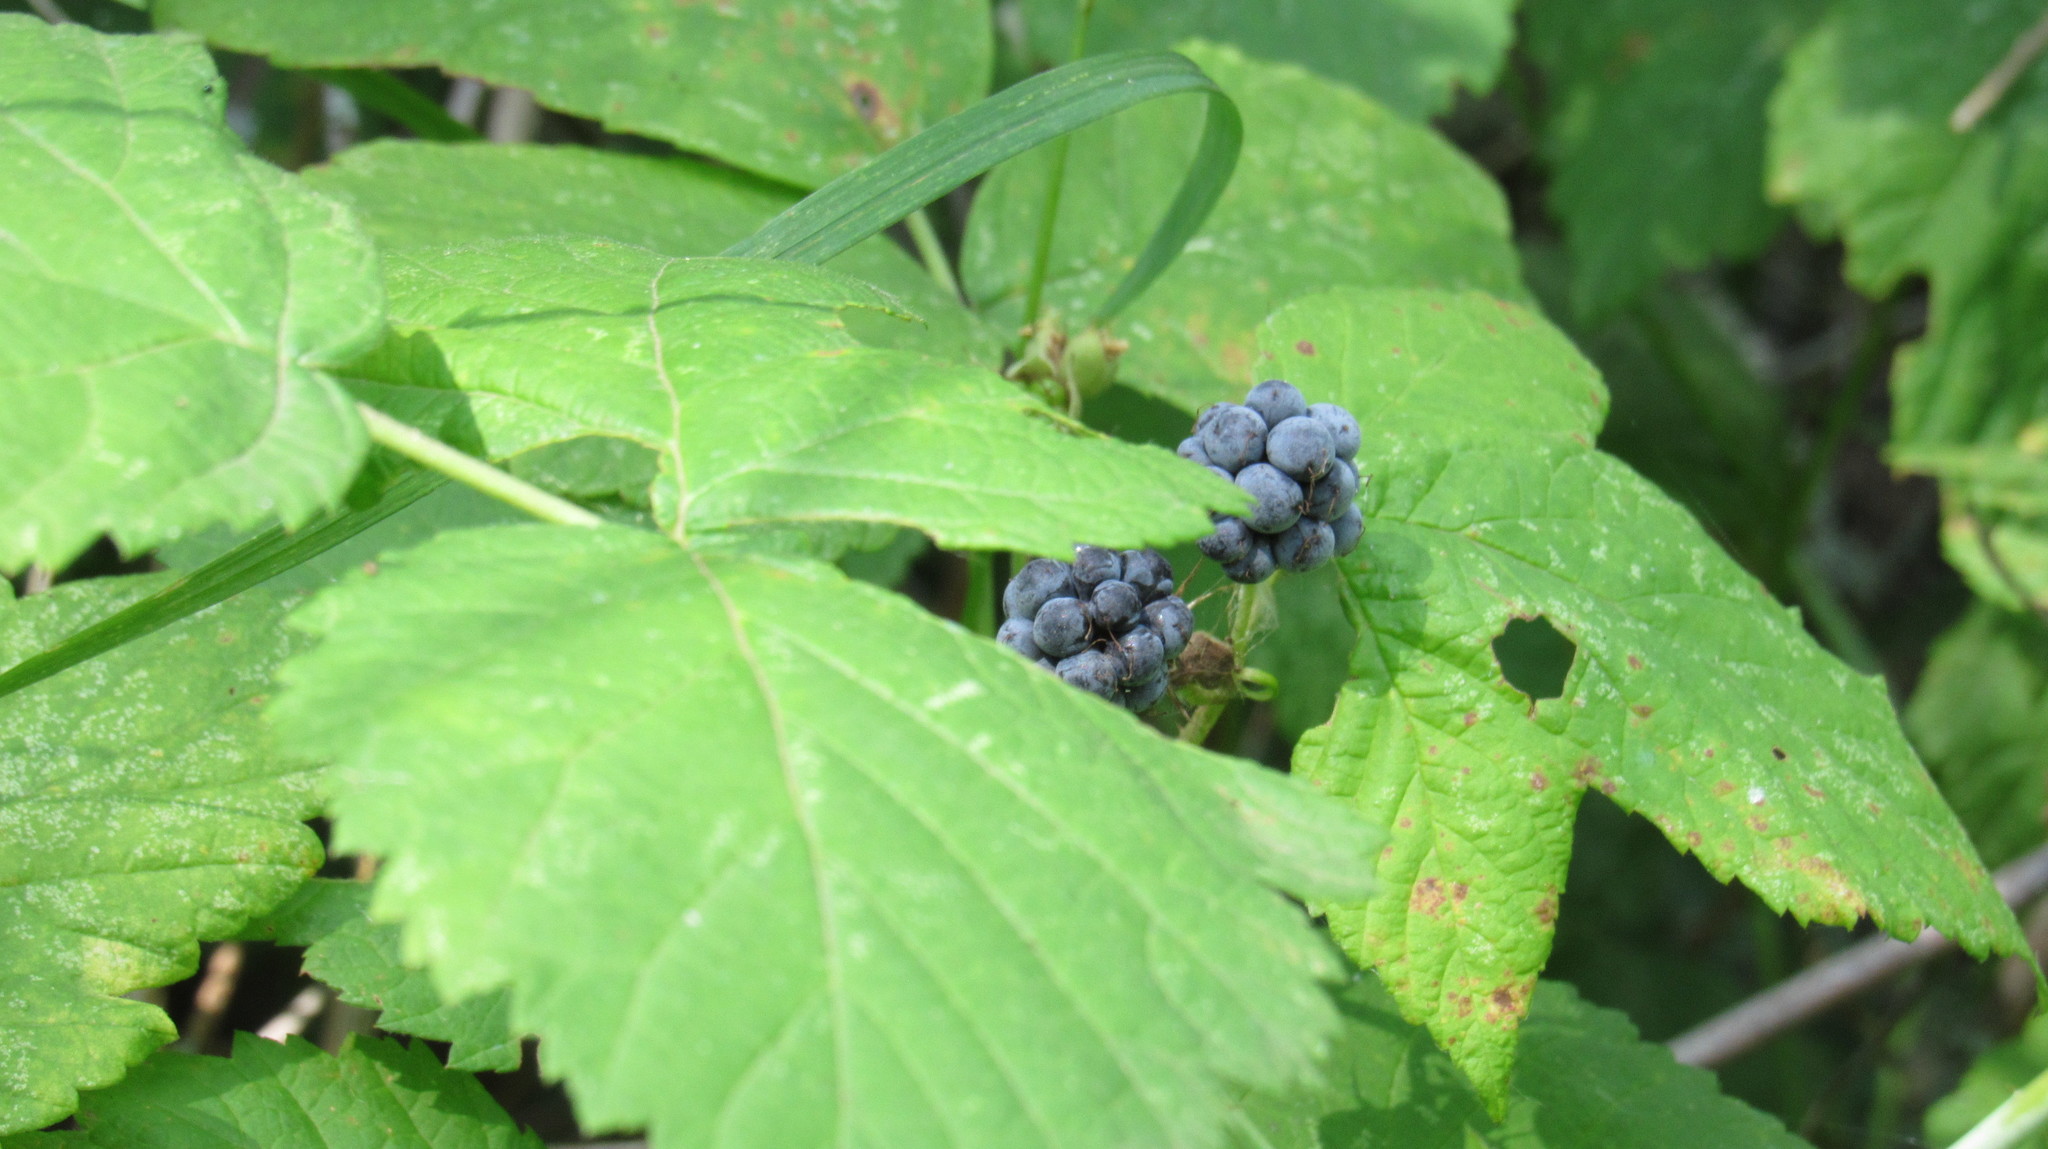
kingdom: Plantae
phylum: Tracheophyta
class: Magnoliopsida
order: Rosales
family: Rosaceae
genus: Rubus
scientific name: Rubus caesius
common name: Dewberry
